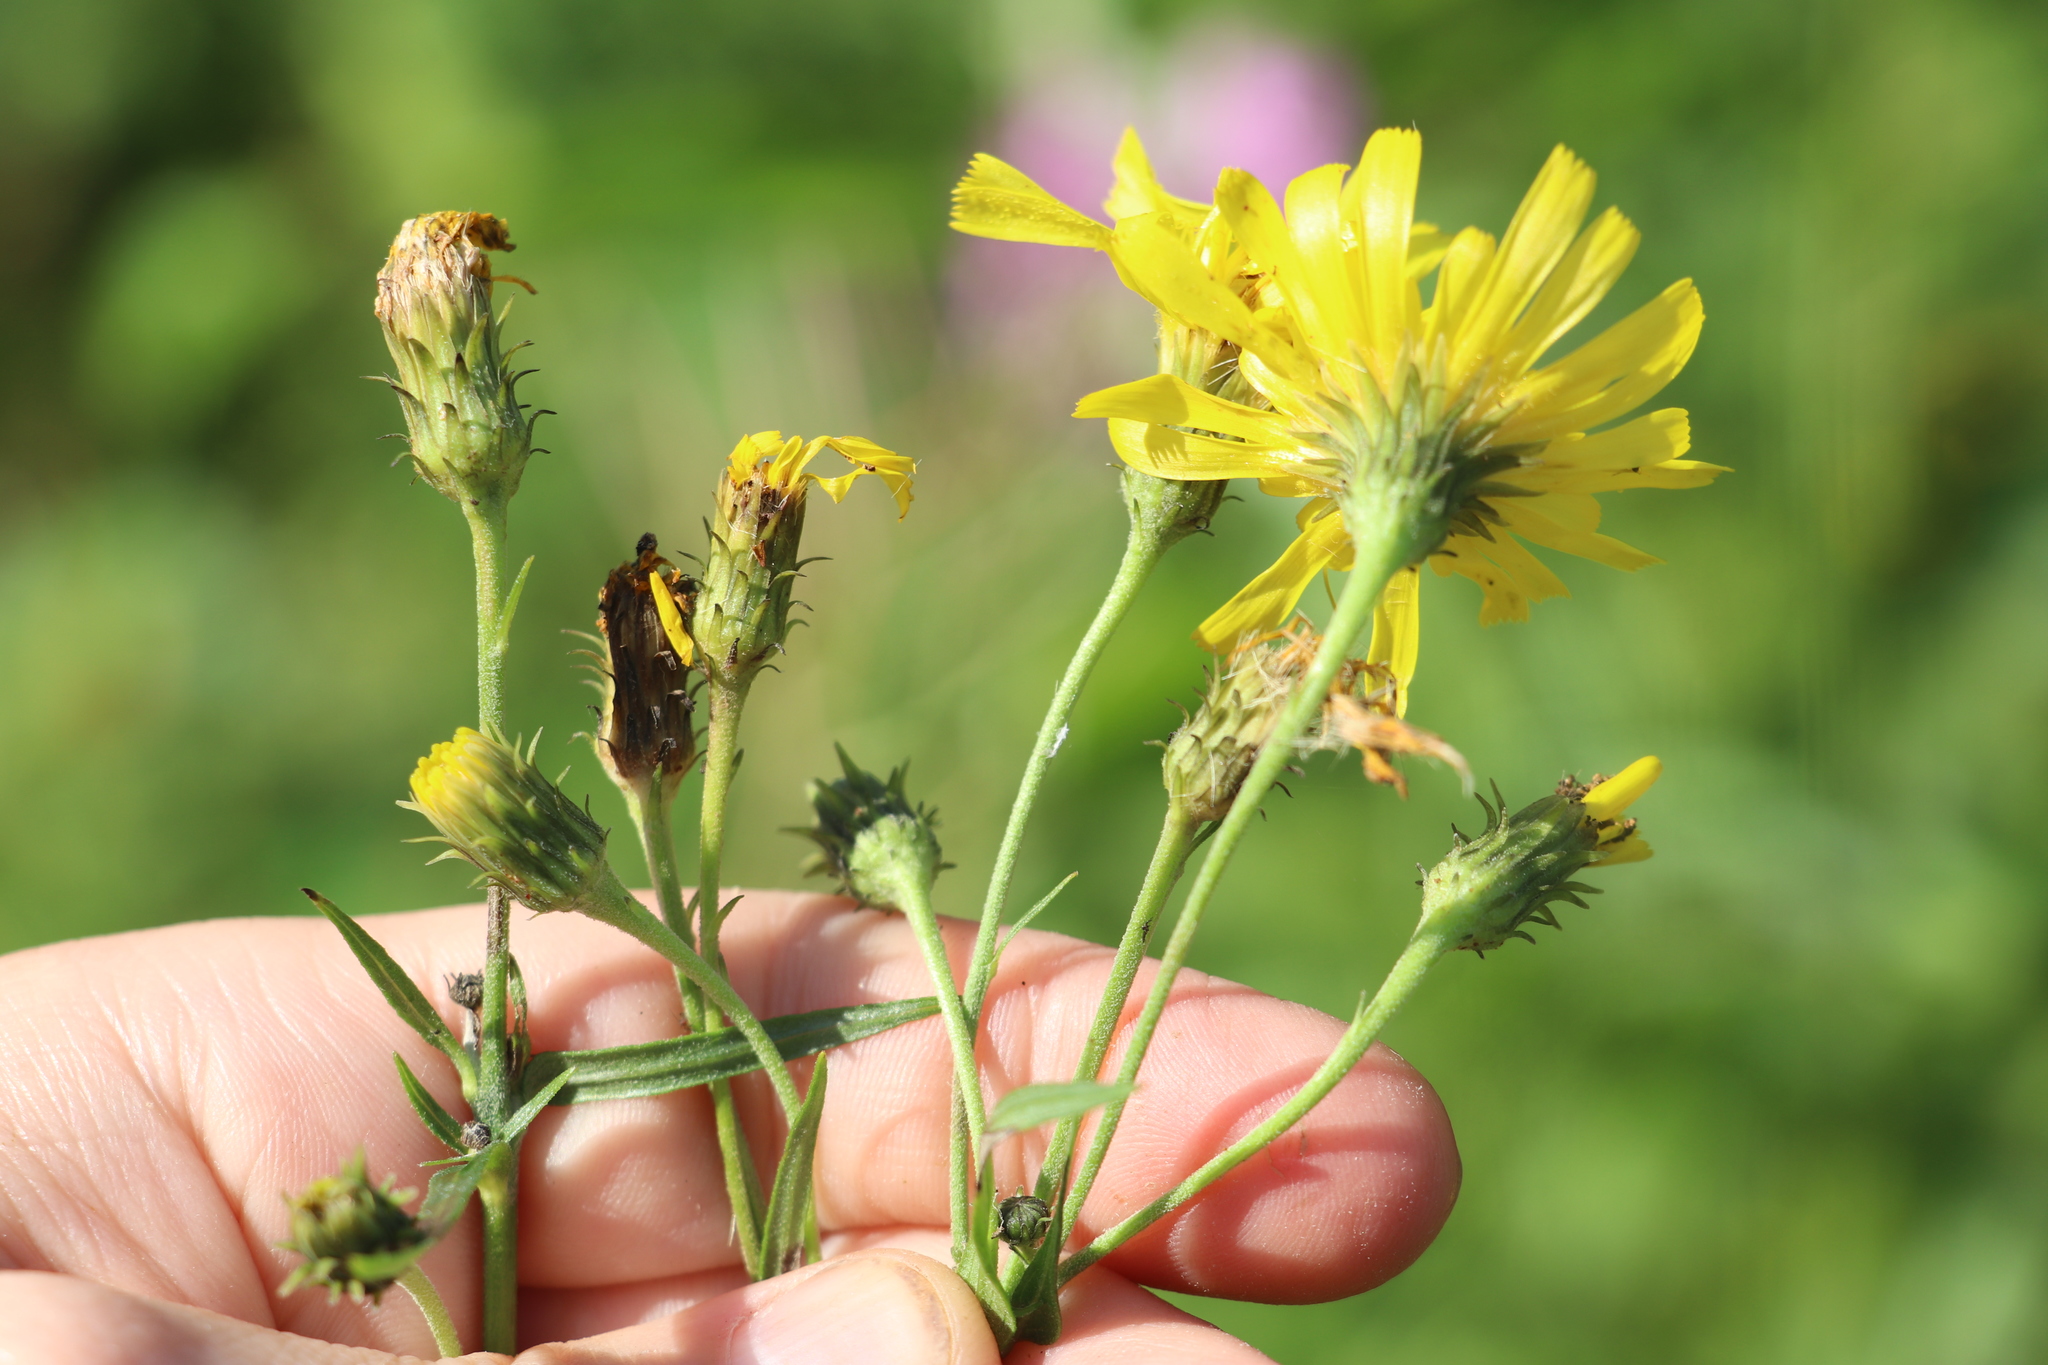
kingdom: Plantae
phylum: Tracheophyta
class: Magnoliopsida
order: Asterales
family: Asteraceae
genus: Hieracium
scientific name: Hieracium umbellatum
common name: Northern hawkweed
